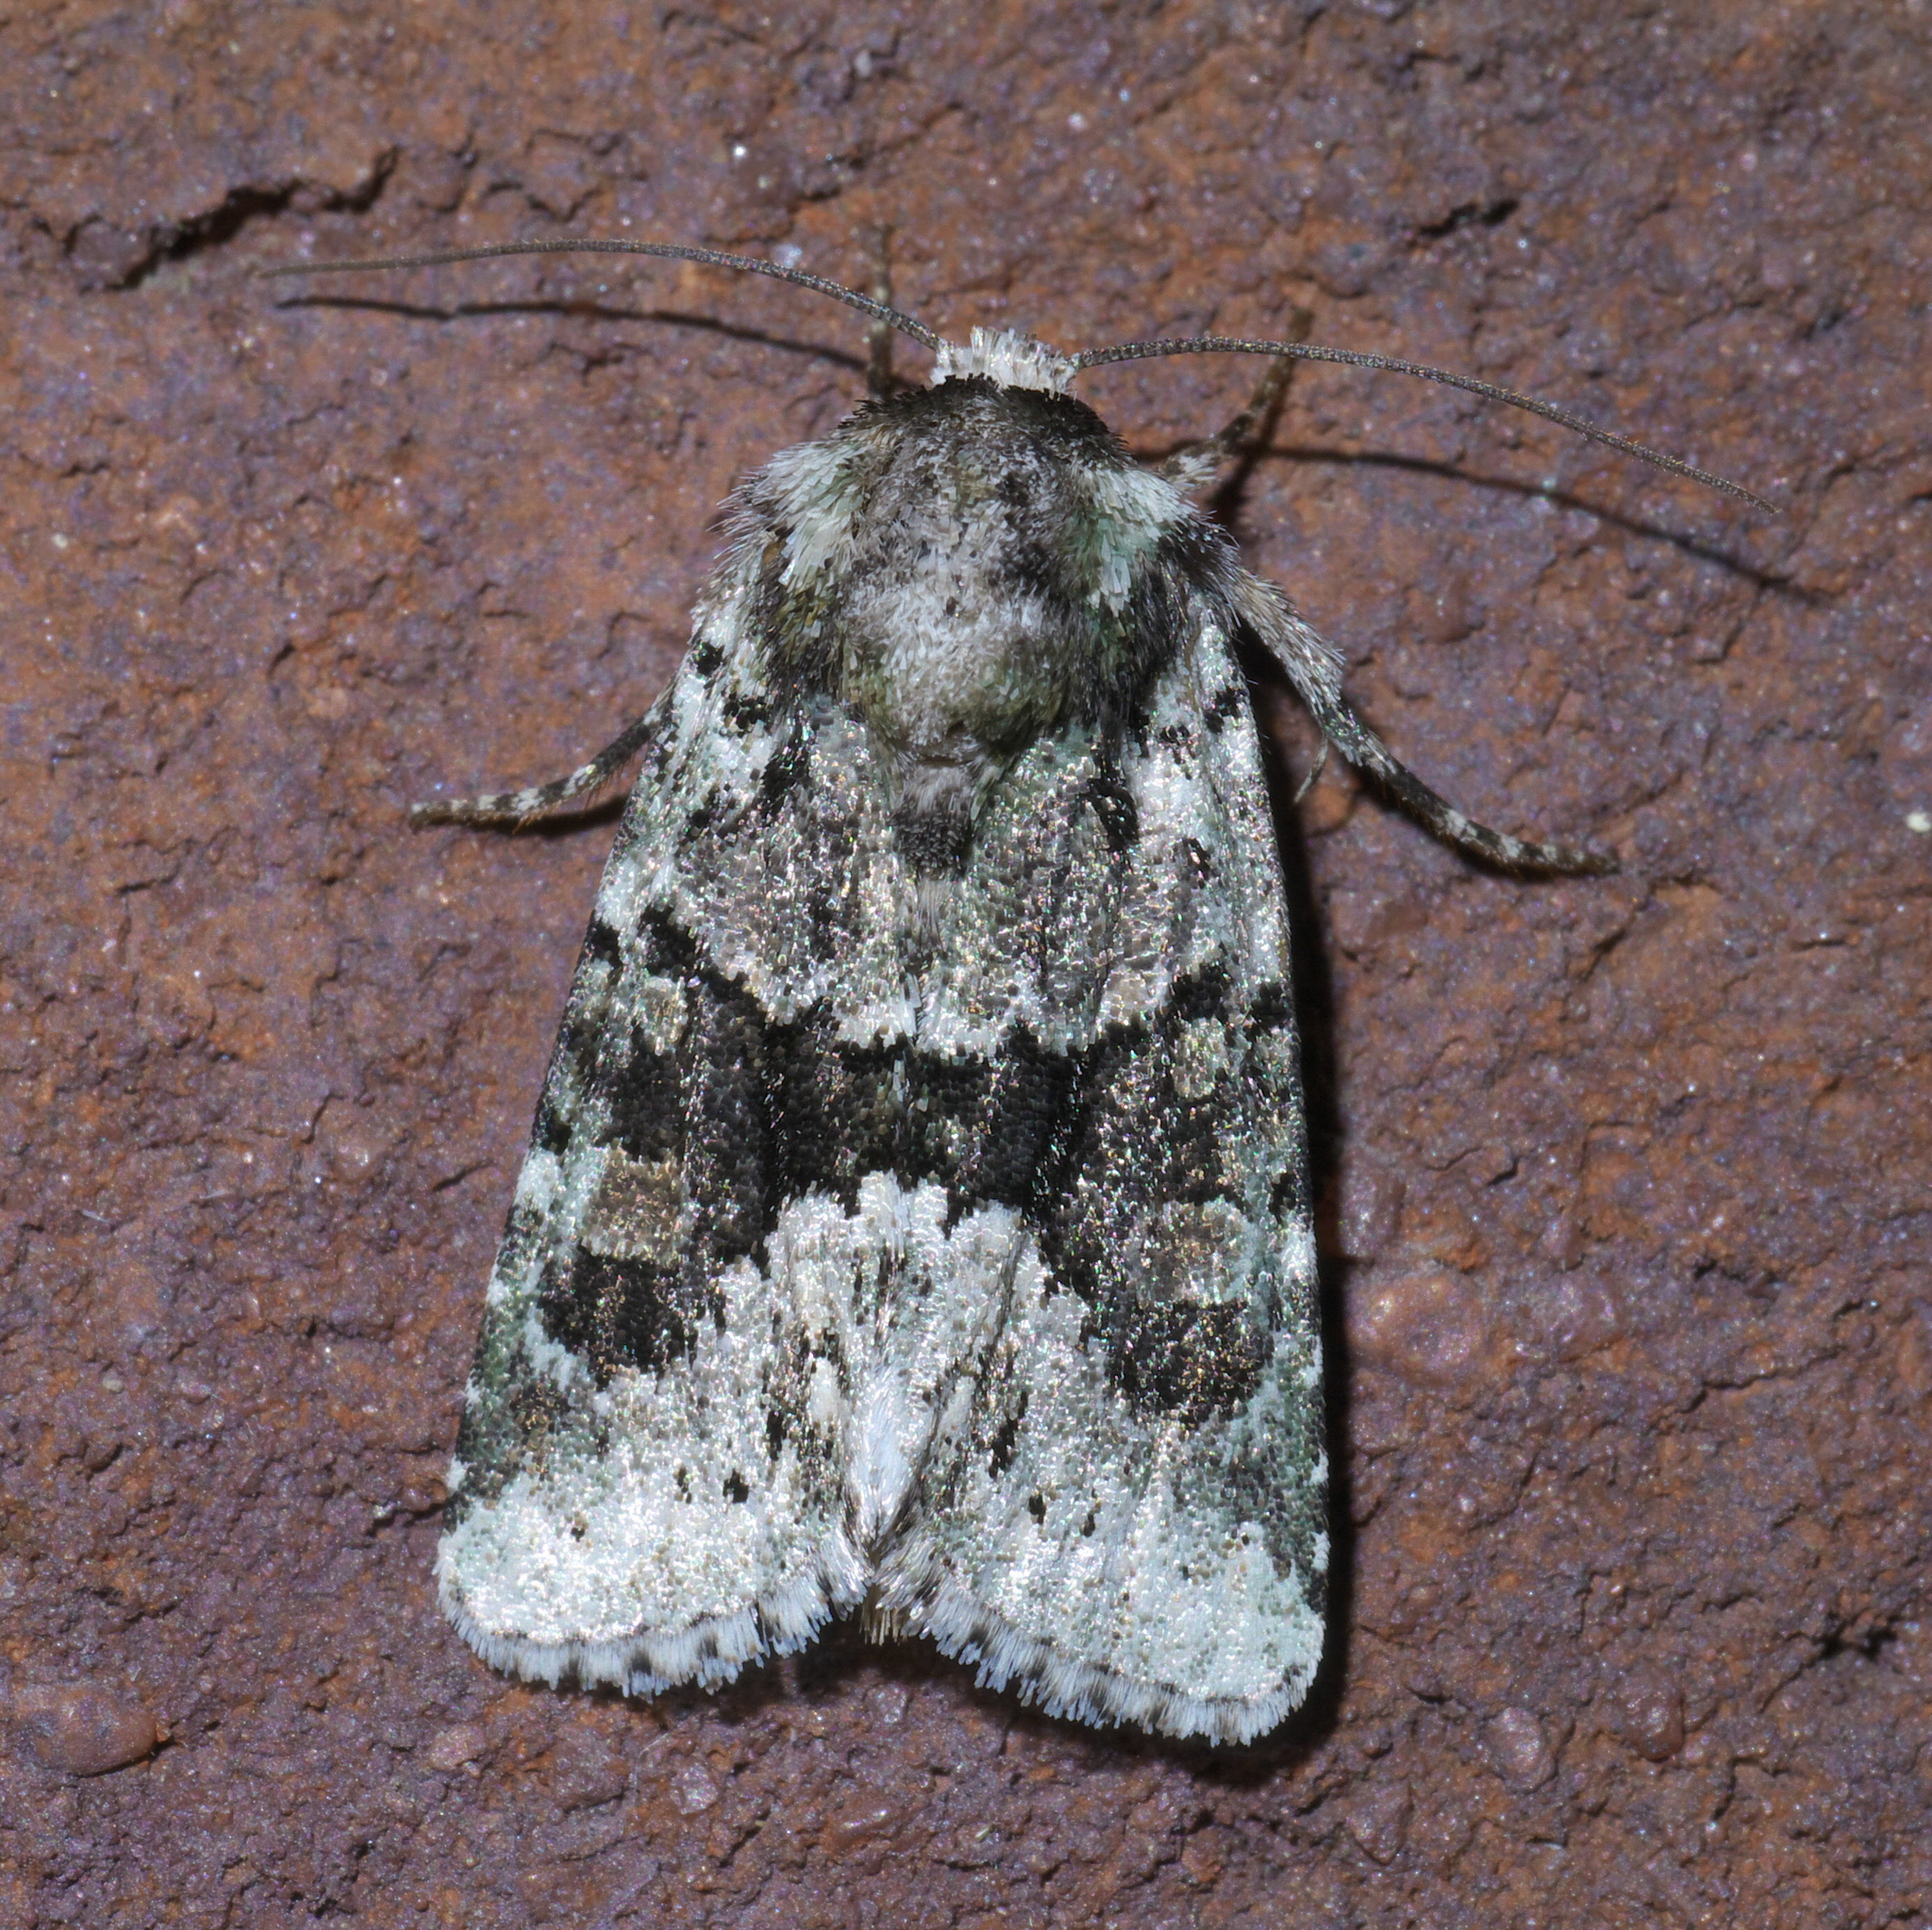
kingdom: Animalia
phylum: Arthropoda
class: Insecta
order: Lepidoptera
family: Noctuidae
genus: Lacinipolia
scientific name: Lacinipolia explicata
